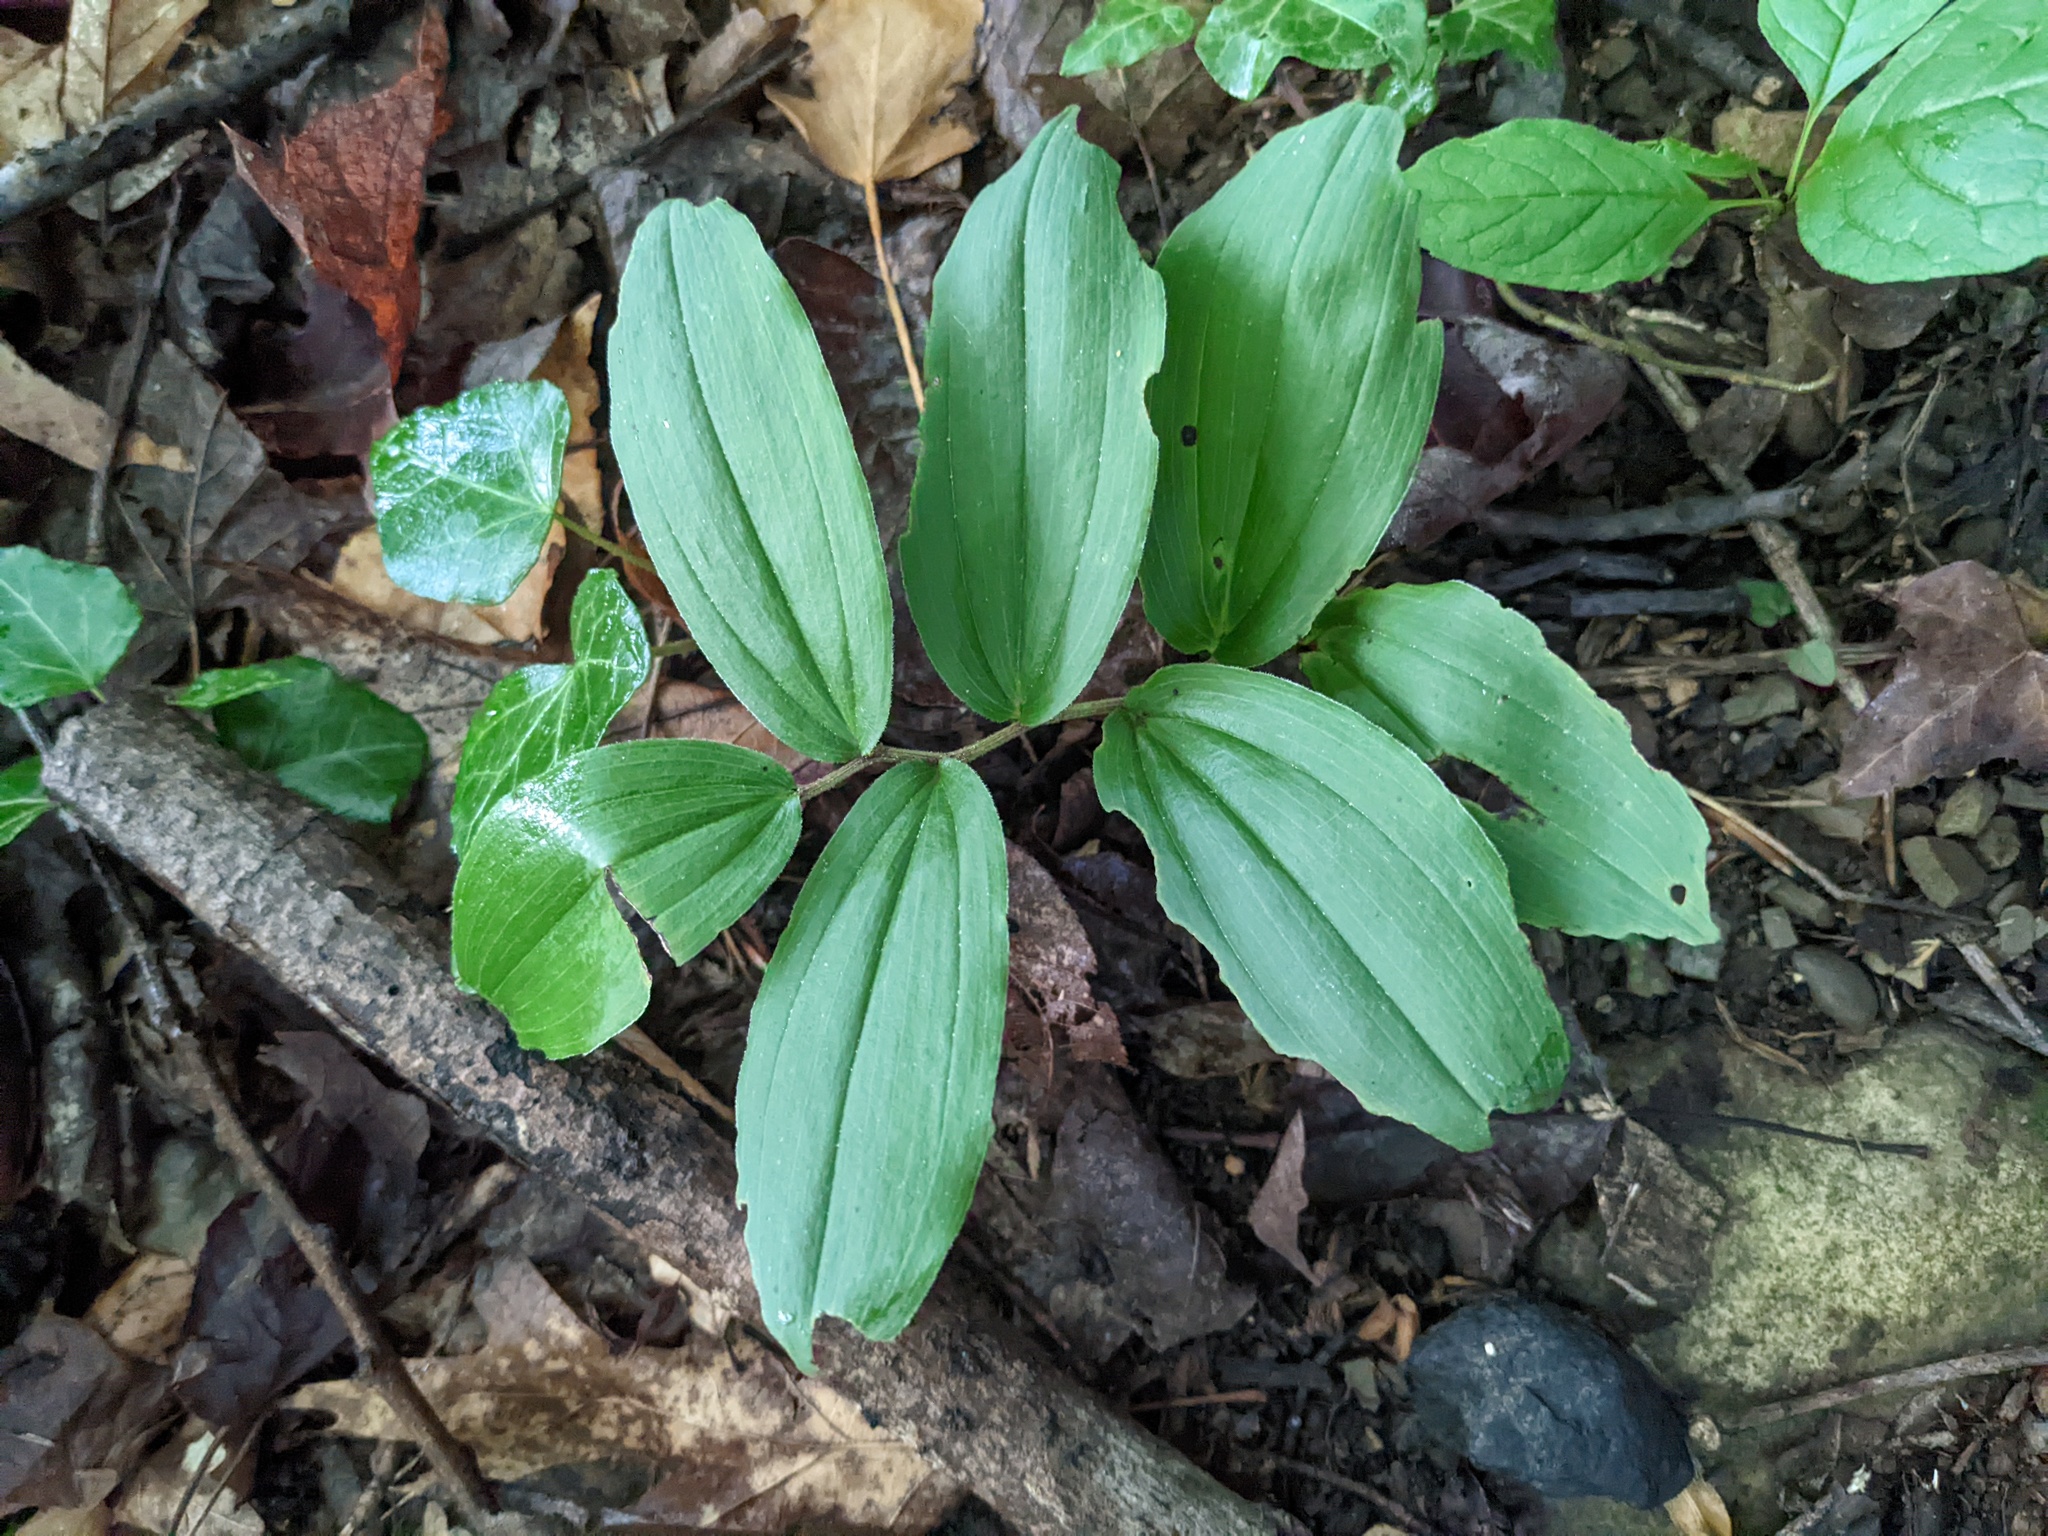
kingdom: Plantae
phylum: Tracheophyta
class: Liliopsida
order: Asparagales
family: Asparagaceae
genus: Maianthemum
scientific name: Maianthemum racemosum
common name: False spikenard
